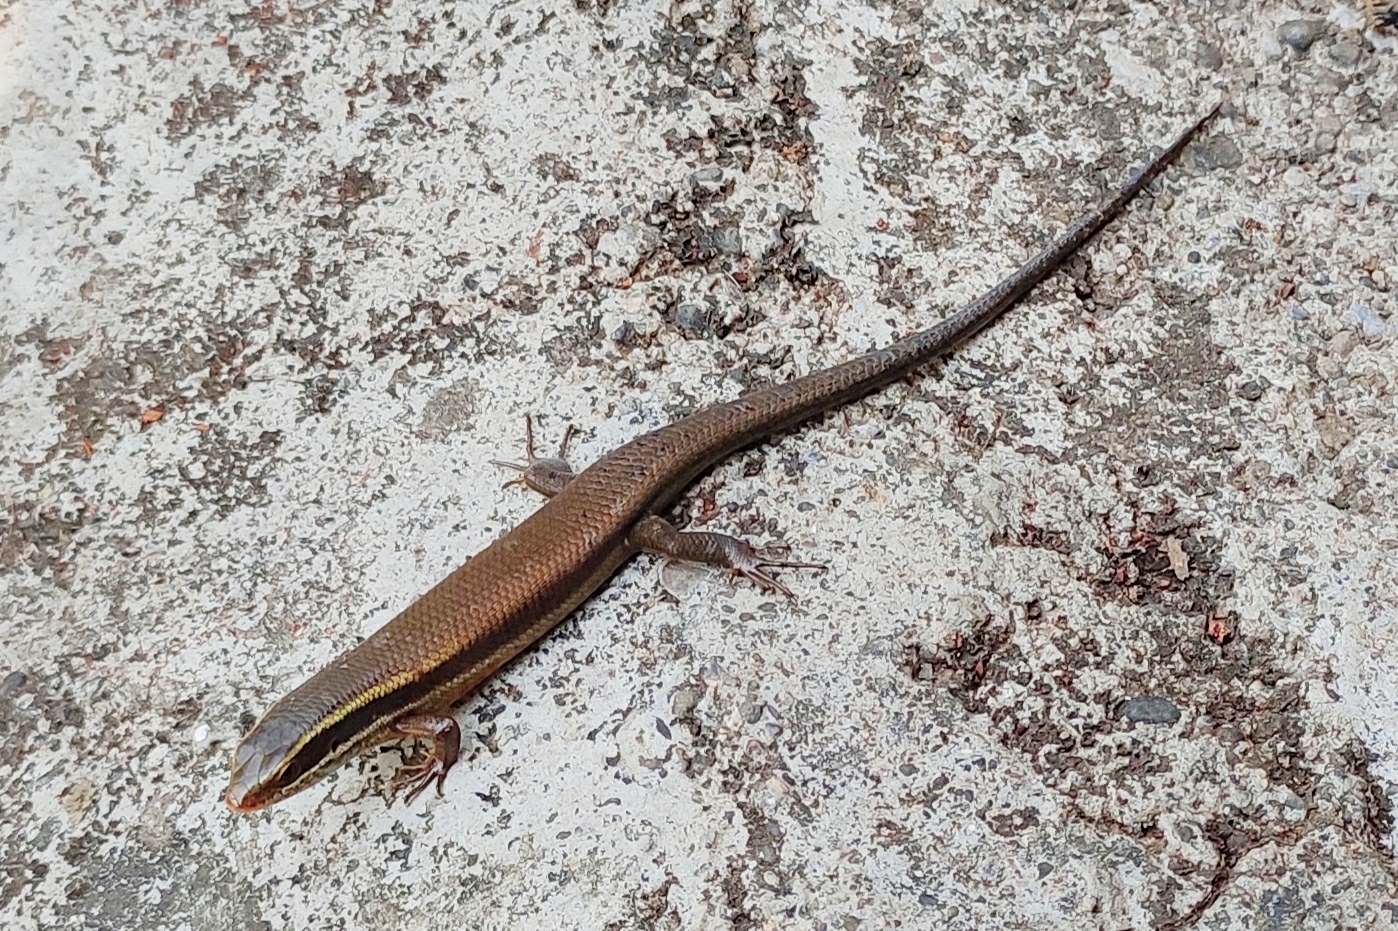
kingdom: Animalia
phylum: Chordata
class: Squamata
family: Scincidae
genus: Eutropis
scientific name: Eutropis carinata
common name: Keeled indian mabuya
